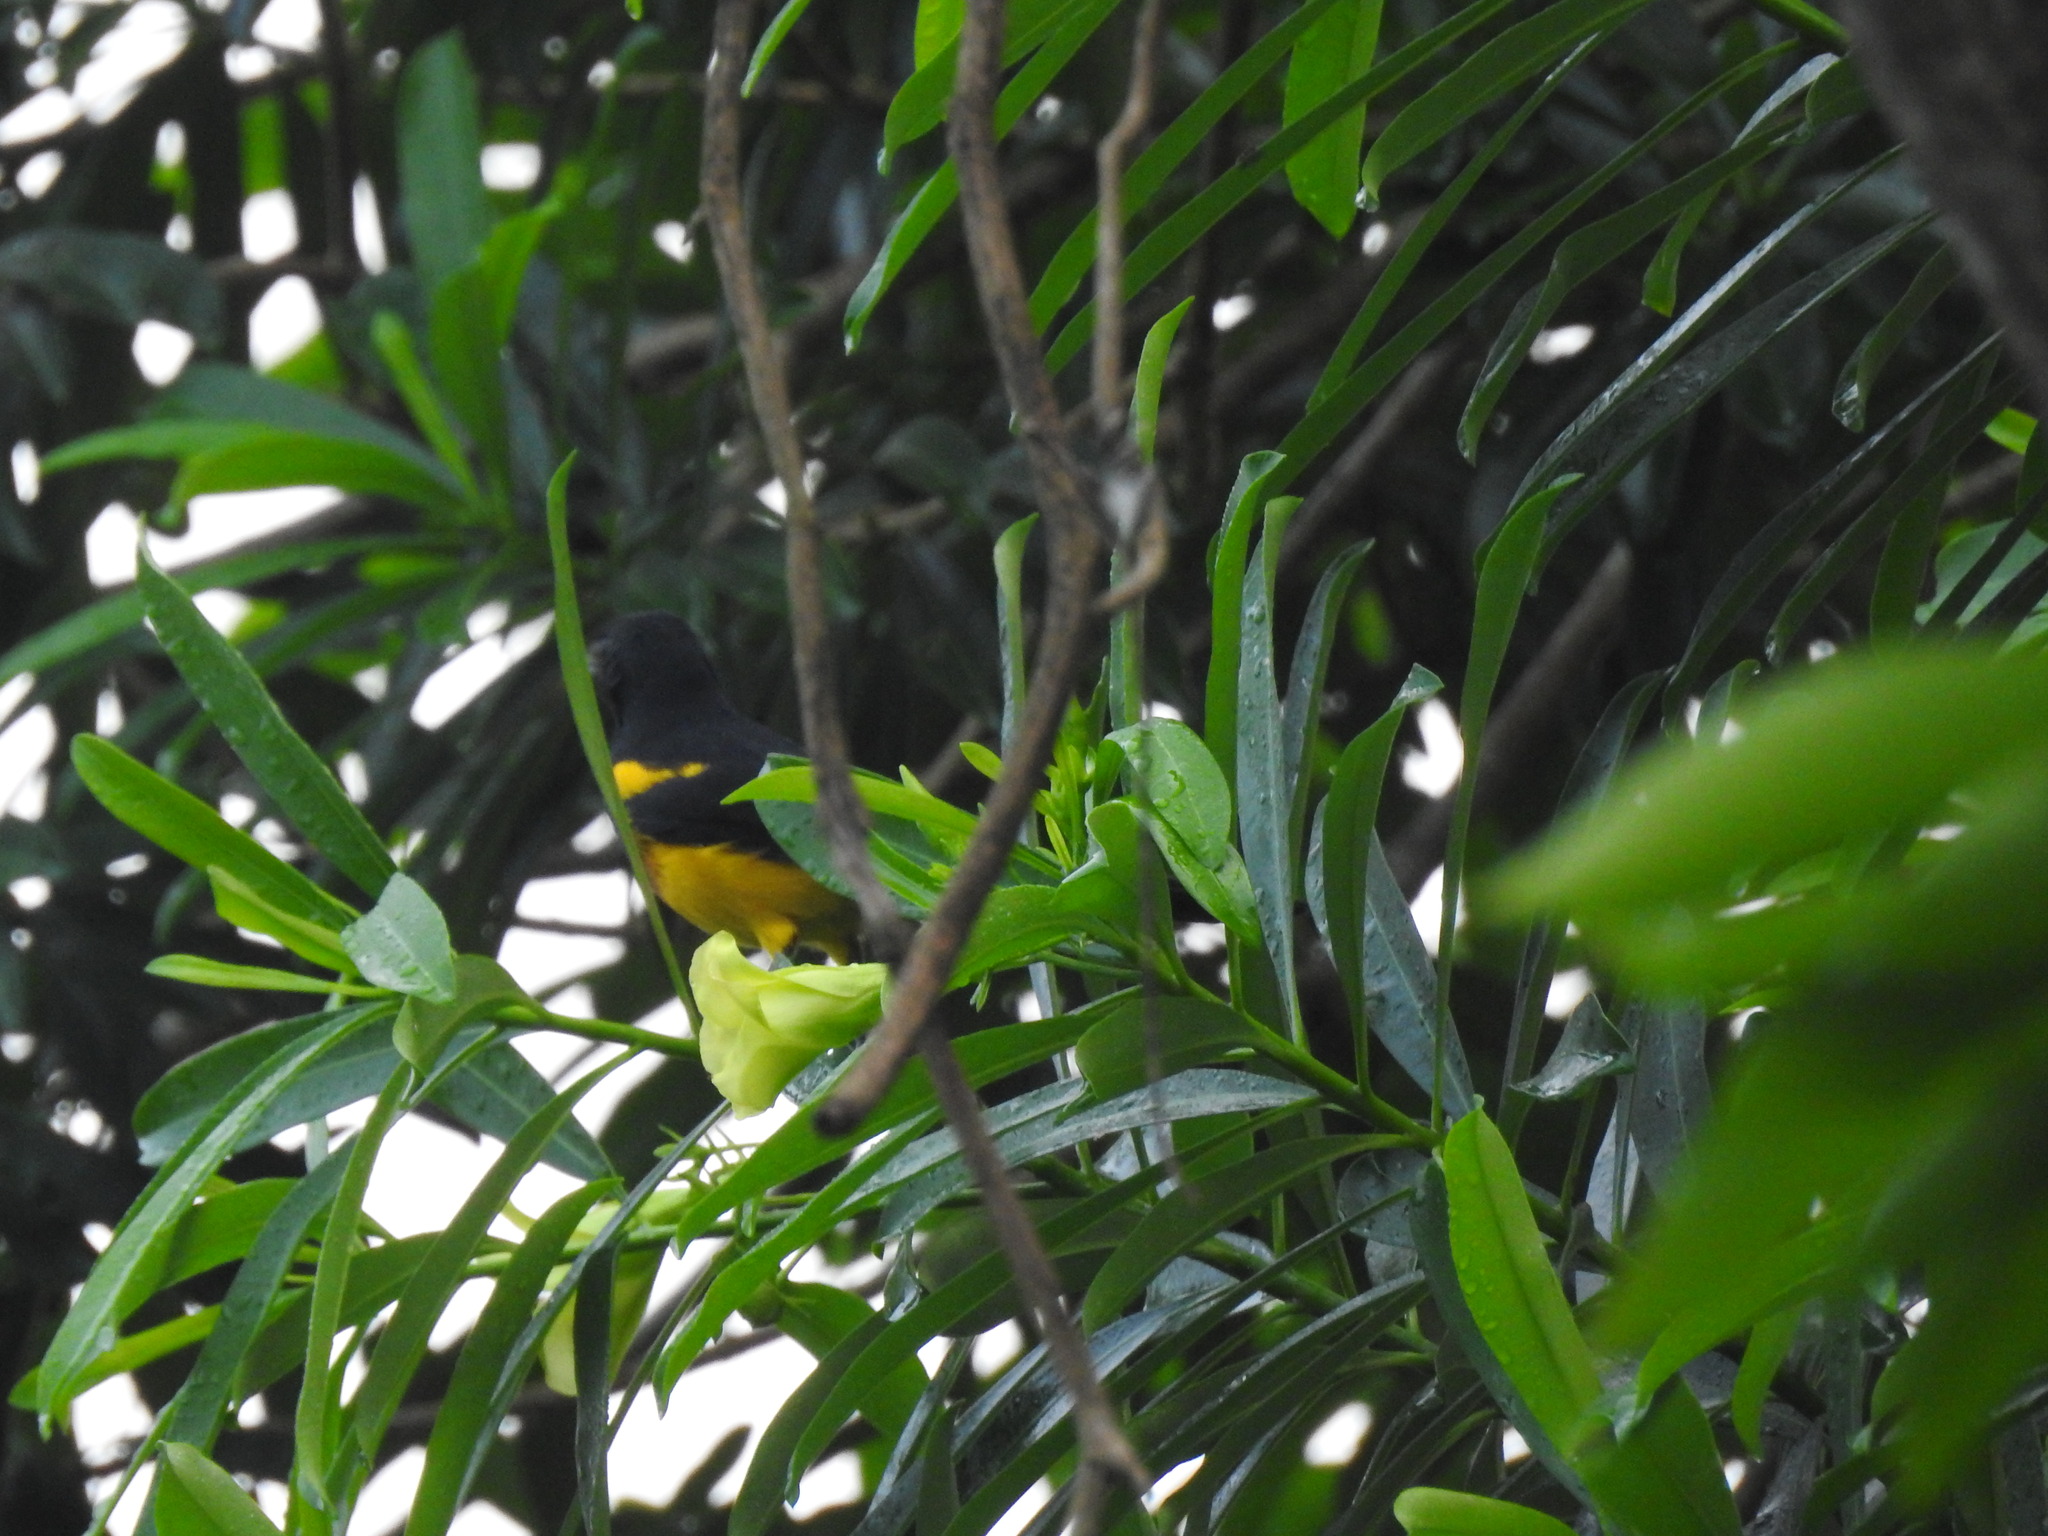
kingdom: Animalia
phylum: Chordata
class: Aves
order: Passeriformes
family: Icteridae
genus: Icterus
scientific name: Icterus prosthemelas
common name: Black-cowled oriole
